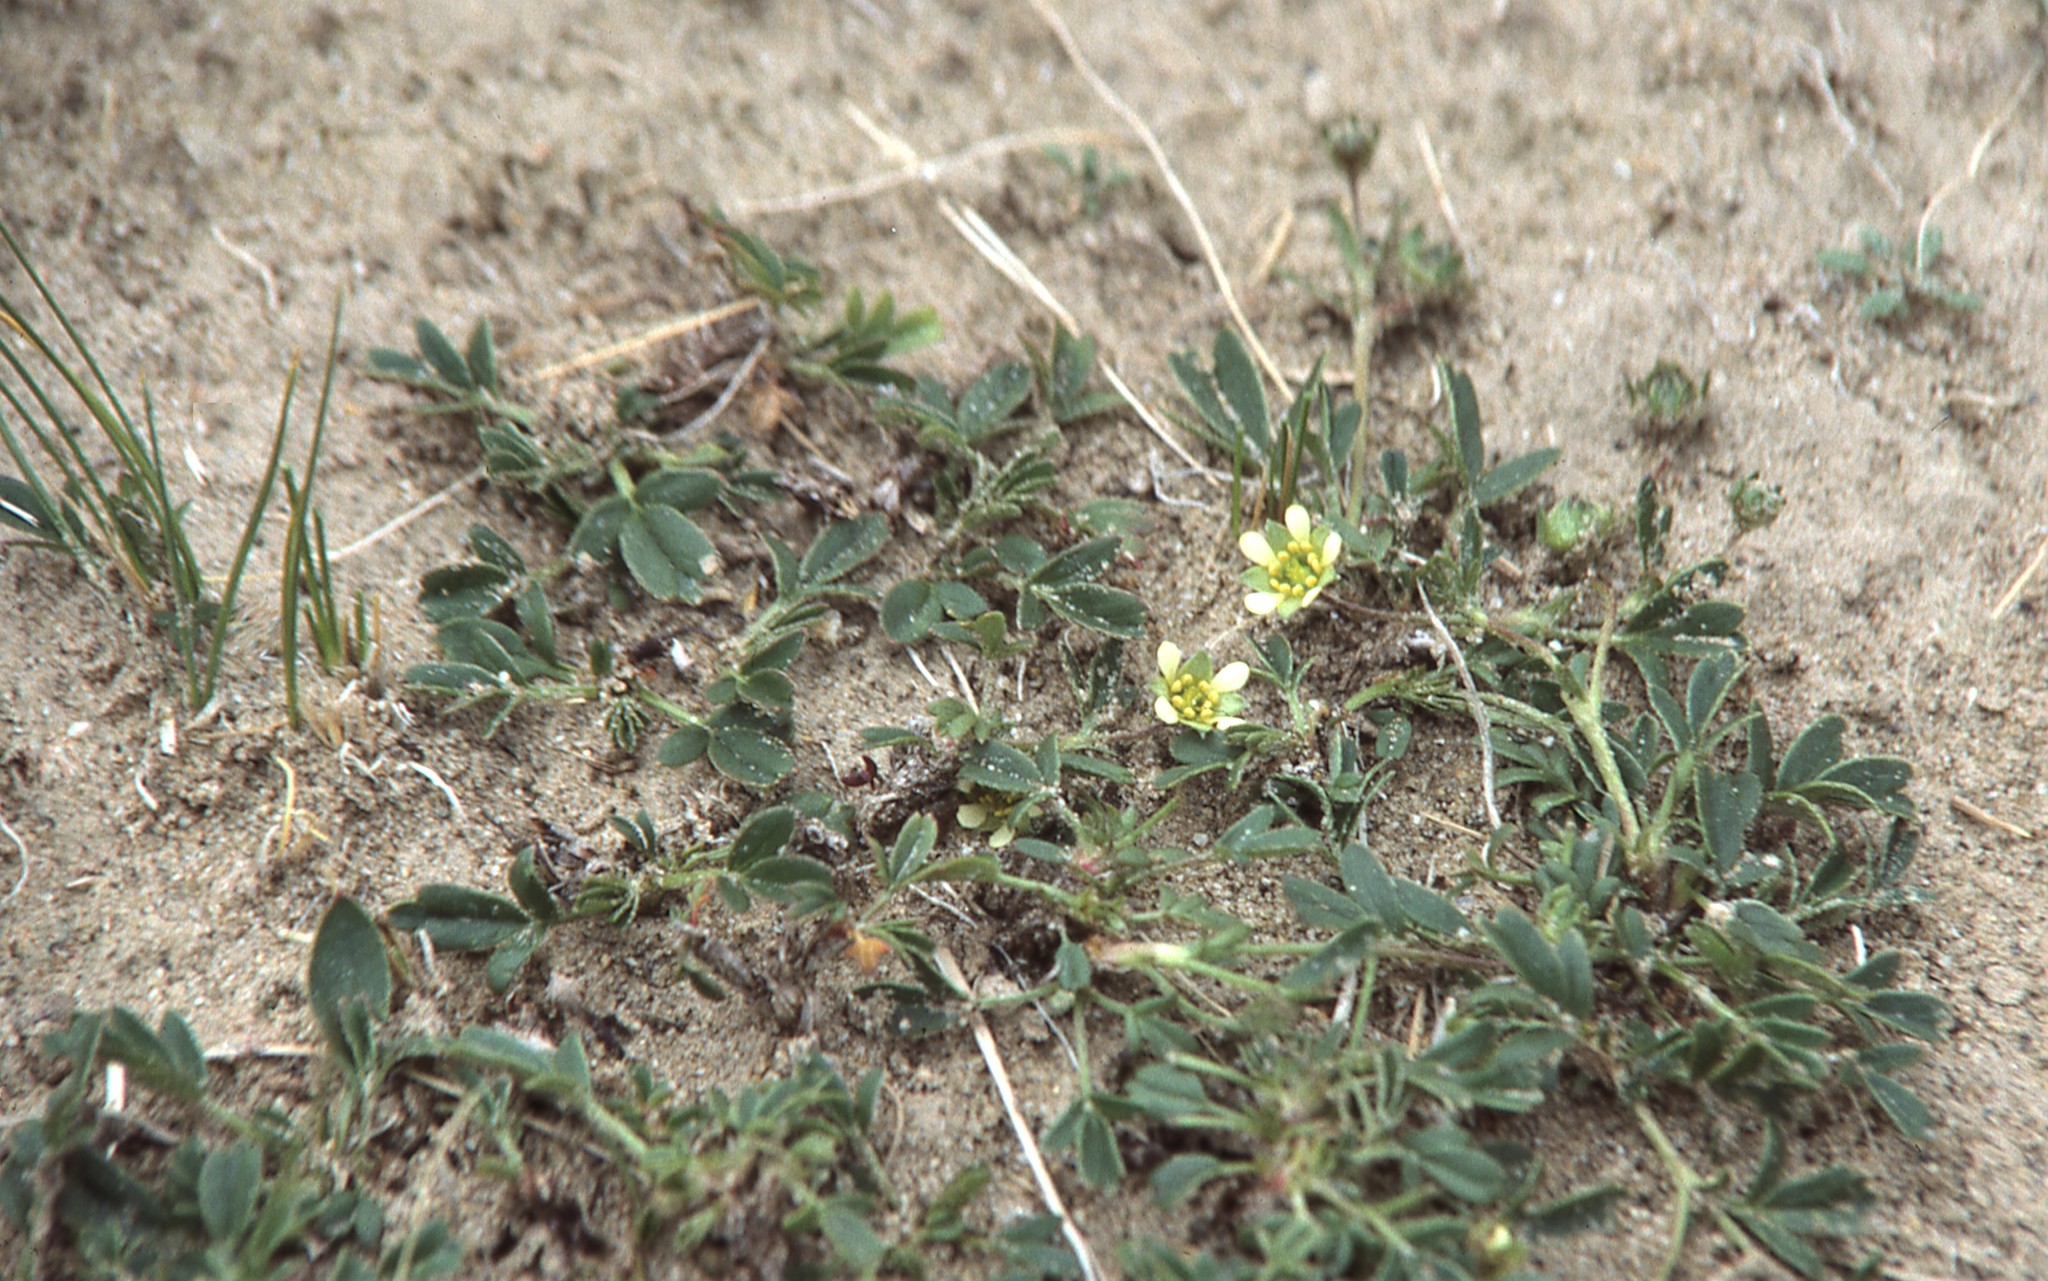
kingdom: Plantae
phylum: Tracheophyta
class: Magnoliopsida
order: Rosales
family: Rosaceae
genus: Sibbaldianthe
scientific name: Sibbaldianthe adpressa
